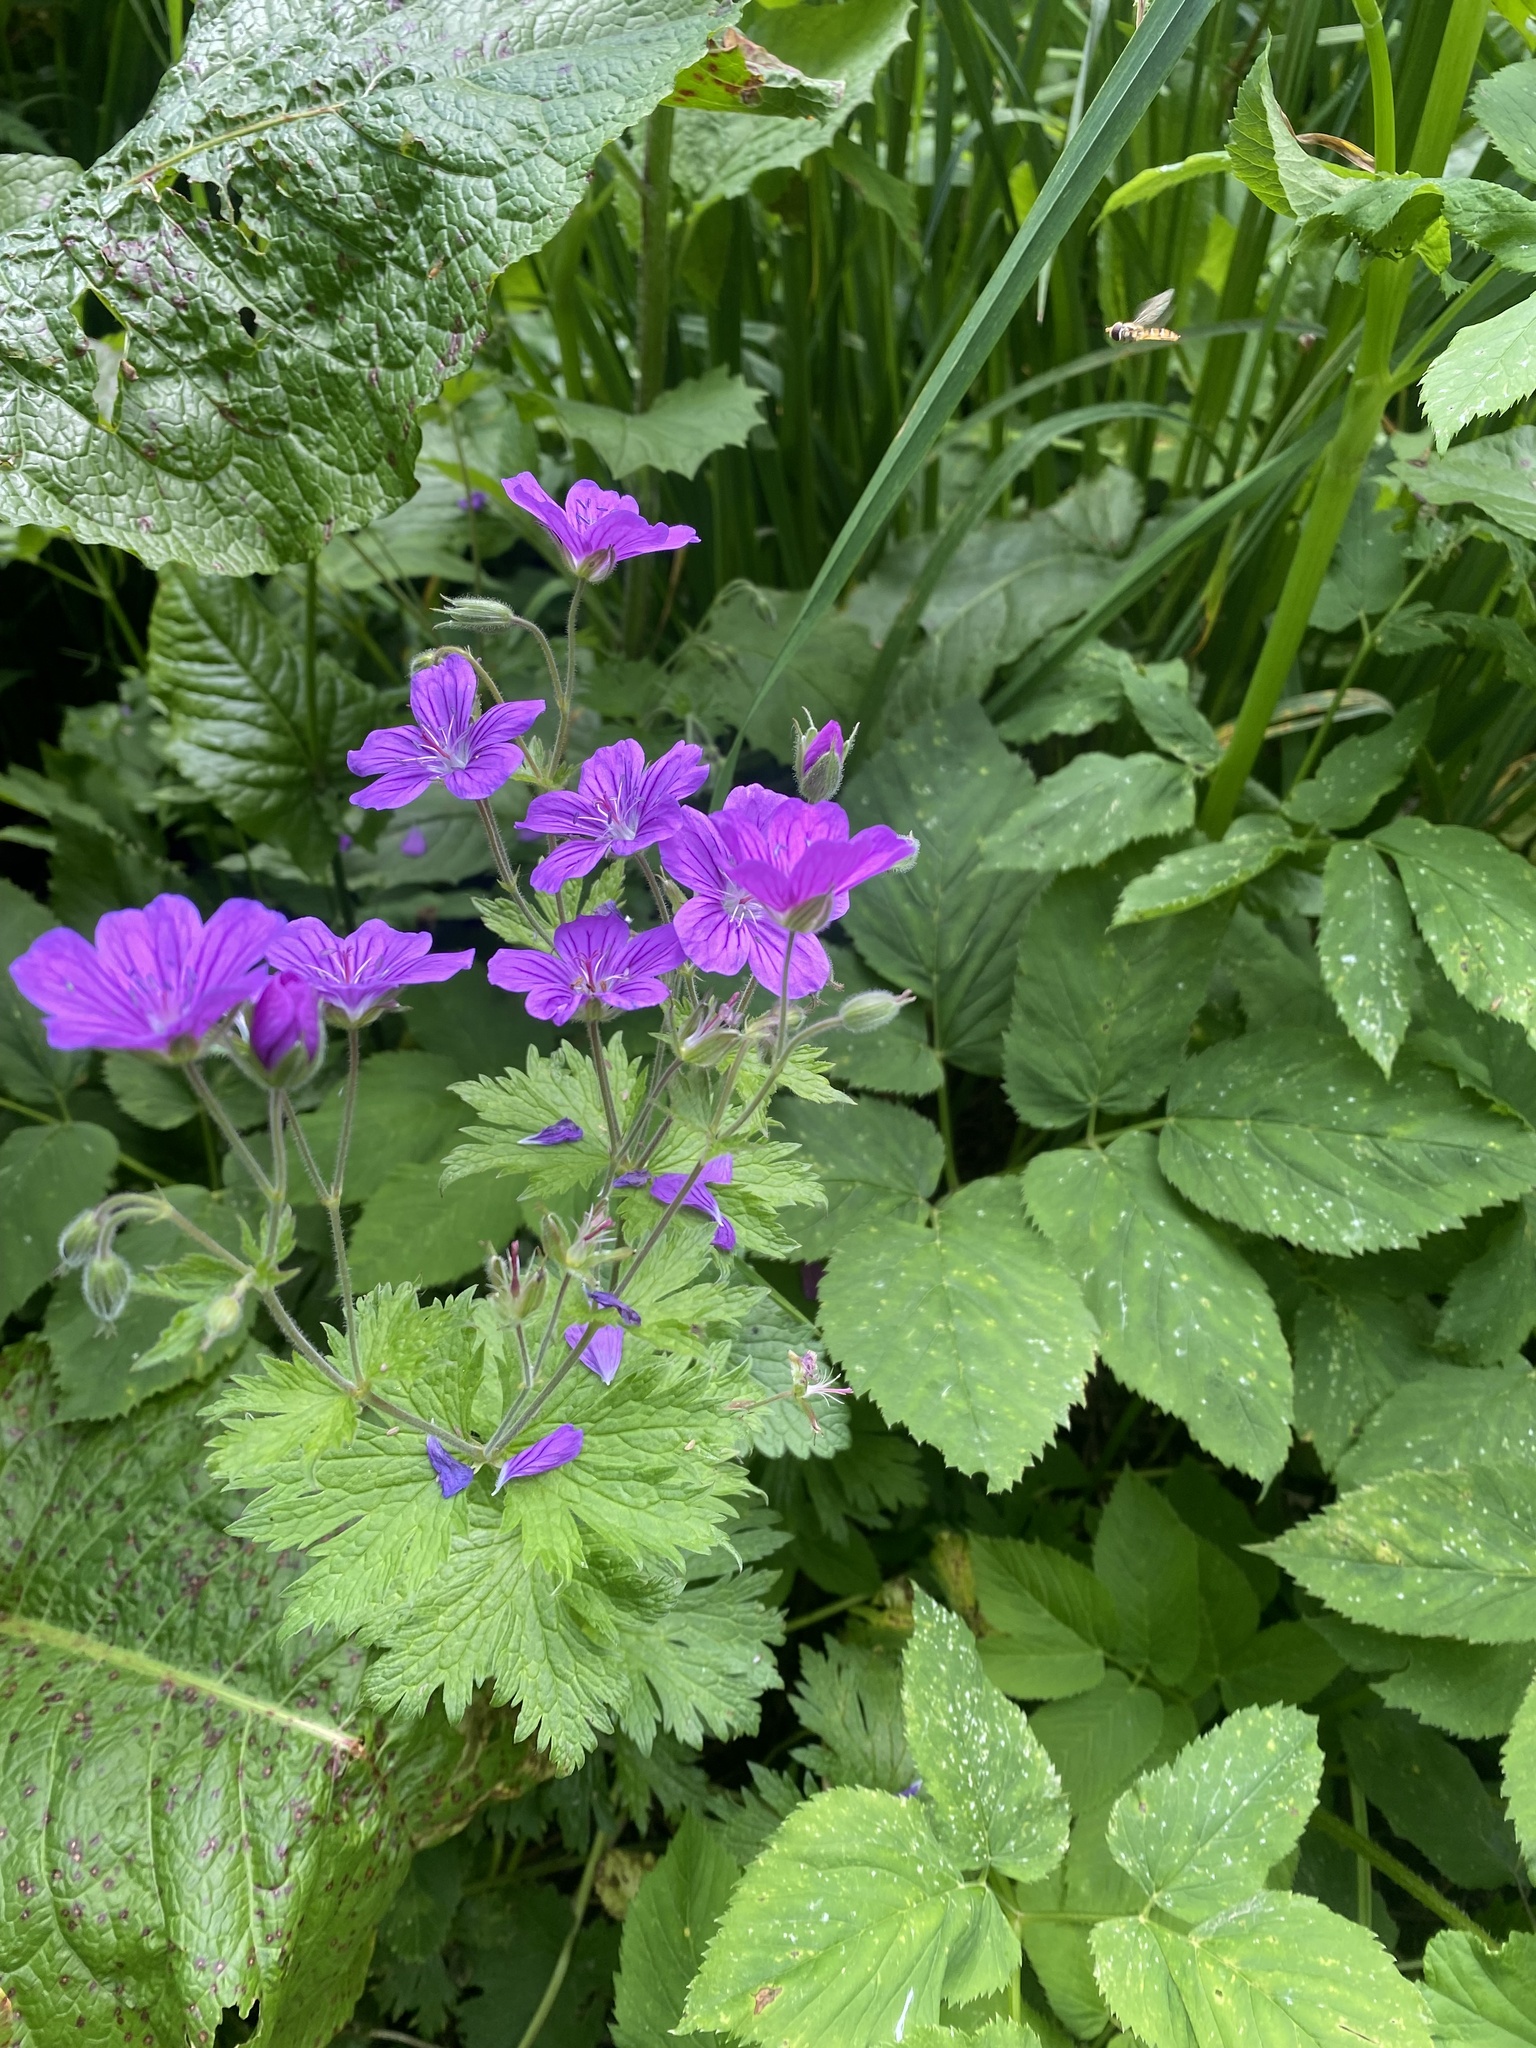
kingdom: Plantae
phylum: Tracheophyta
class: Magnoliopsida
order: Geraniales
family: Geraniaceae
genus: Geranium
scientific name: Geranium sylvaticum
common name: Wood crane's-bill
